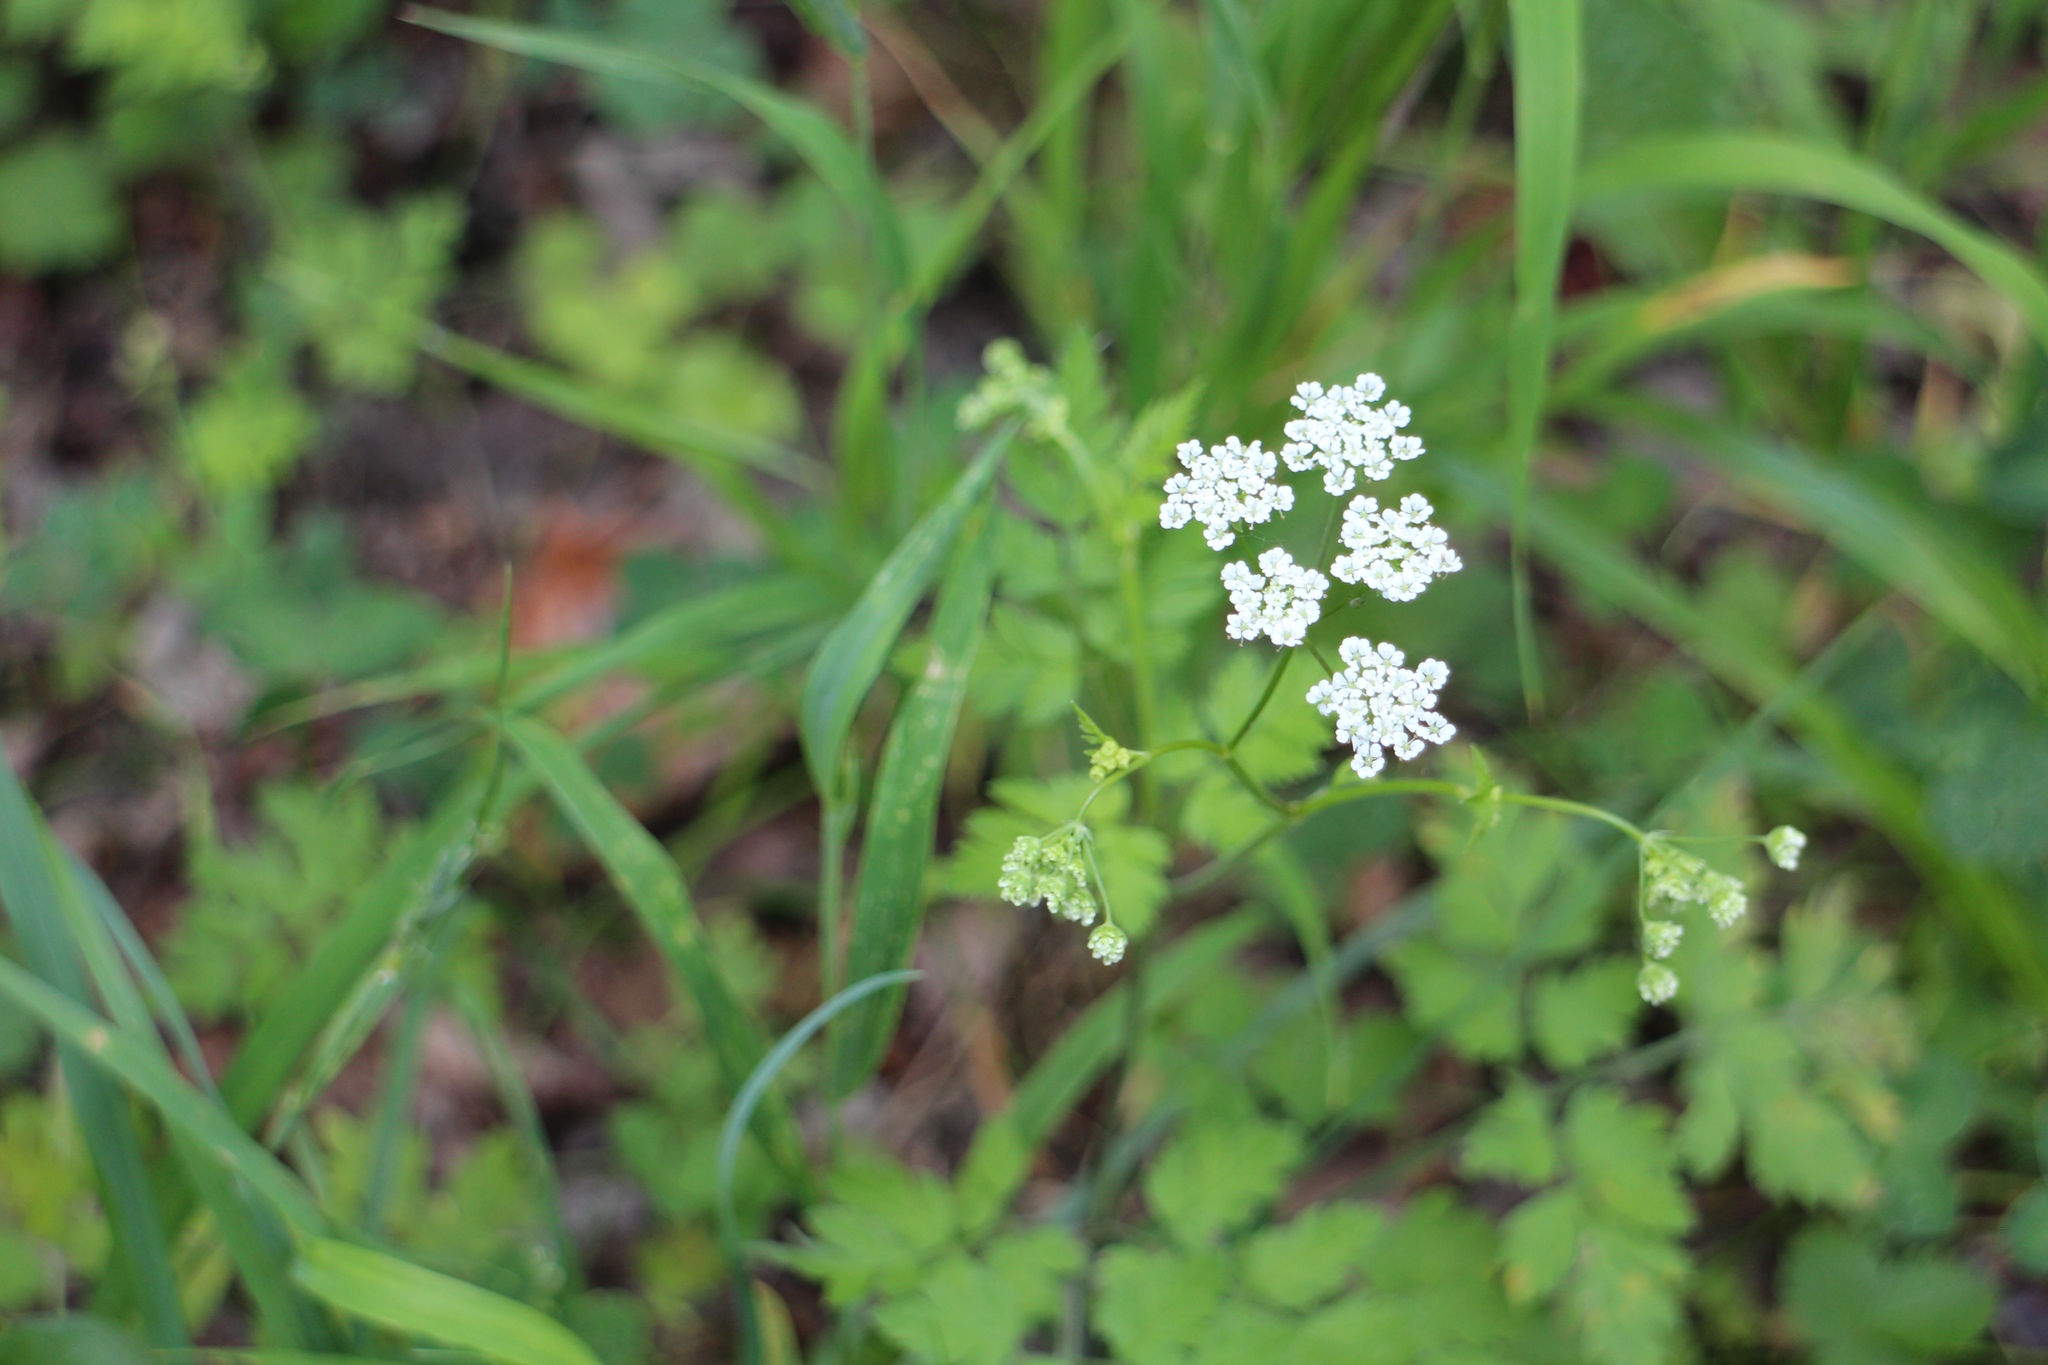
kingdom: Plantae
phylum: Tracheophyta
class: Magnoliopsida
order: Apiales
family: Apiaceae
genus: Chaerophyllum
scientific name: Chaerophyllum temulum
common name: Rough chervil
